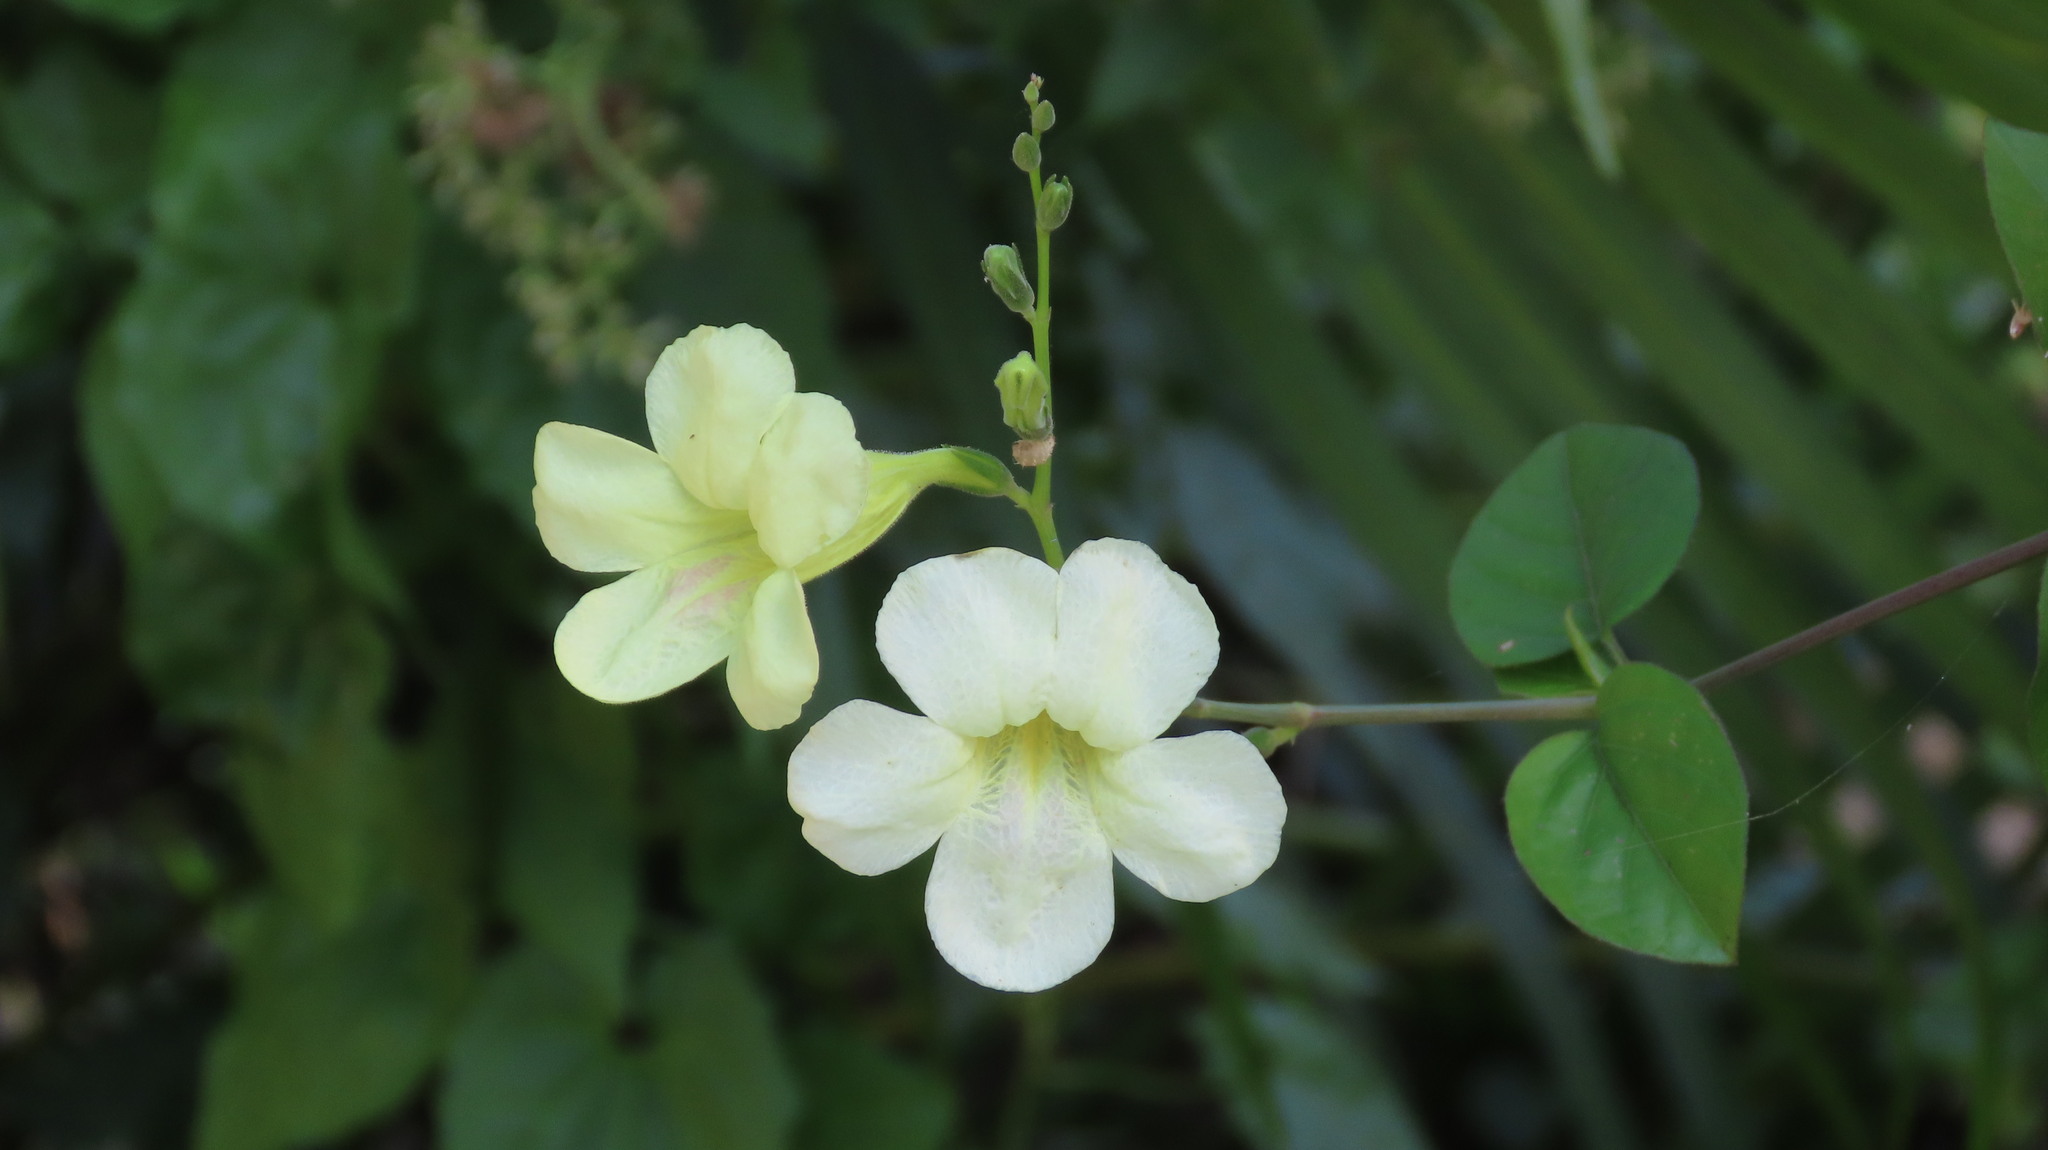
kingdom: Plantae
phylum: Tracheophyta
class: Magnoliopsida
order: Lamiales
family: Acanthaceae
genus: Asystasia
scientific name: Asystasia gangetica
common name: Chinese violet
